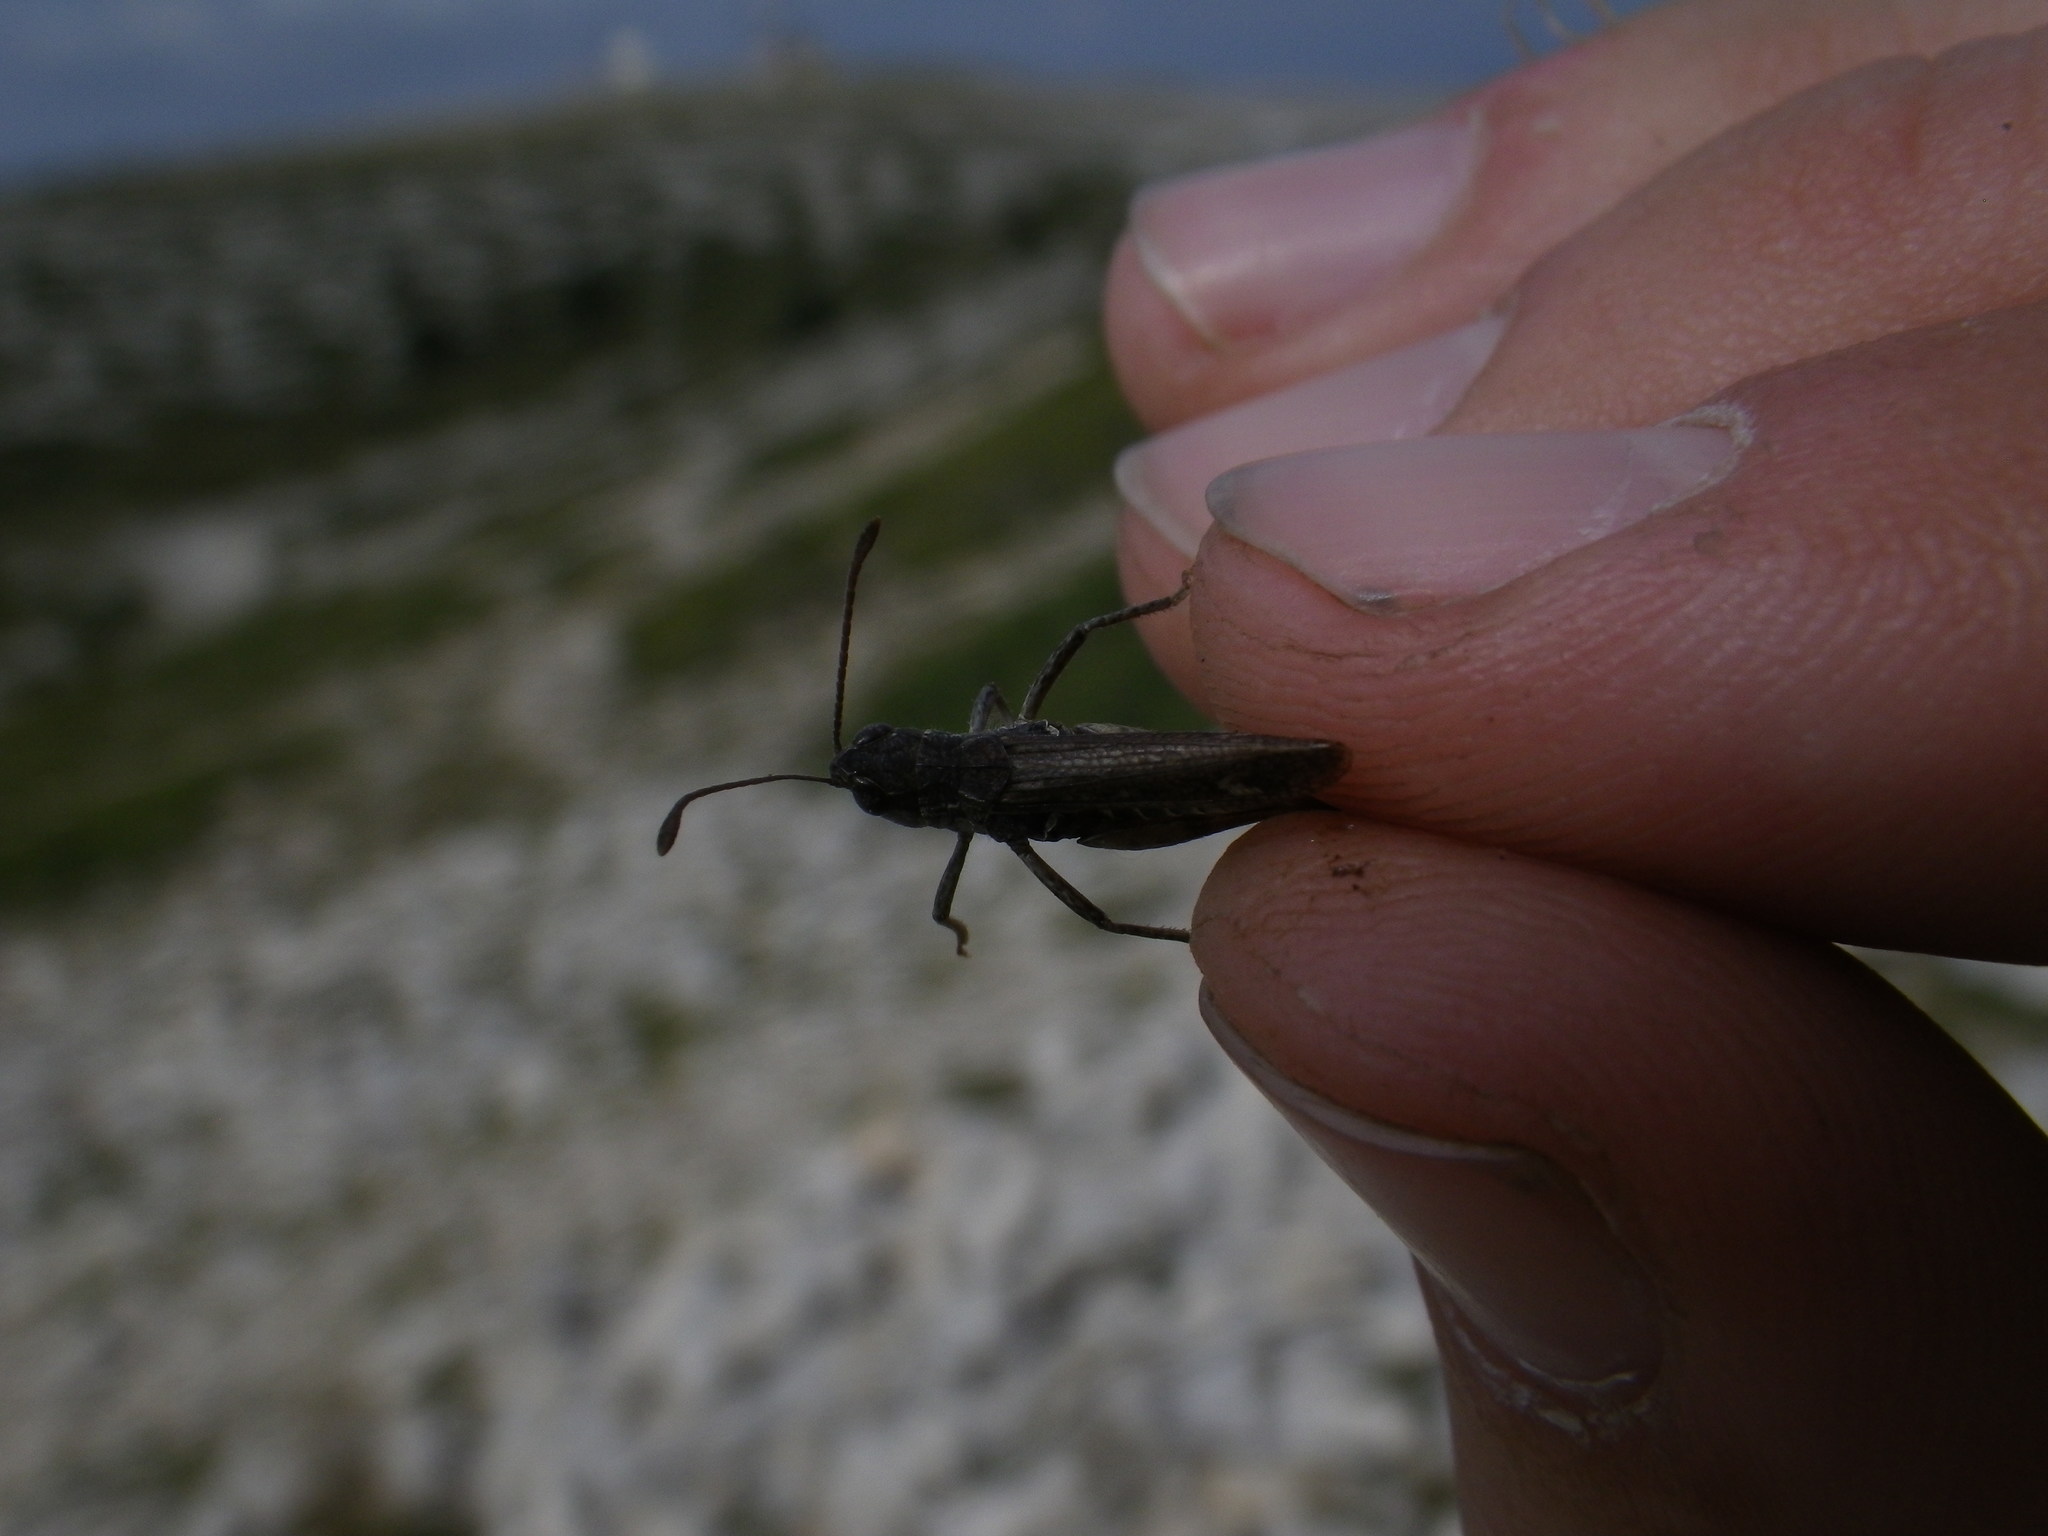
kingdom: Animalia
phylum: Arthropoda
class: Insecta
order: Orthoptera
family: Acrididae
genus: Myrmeleotettix
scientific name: Myrmeleotettix maculatus
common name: Mottled grasshopper
